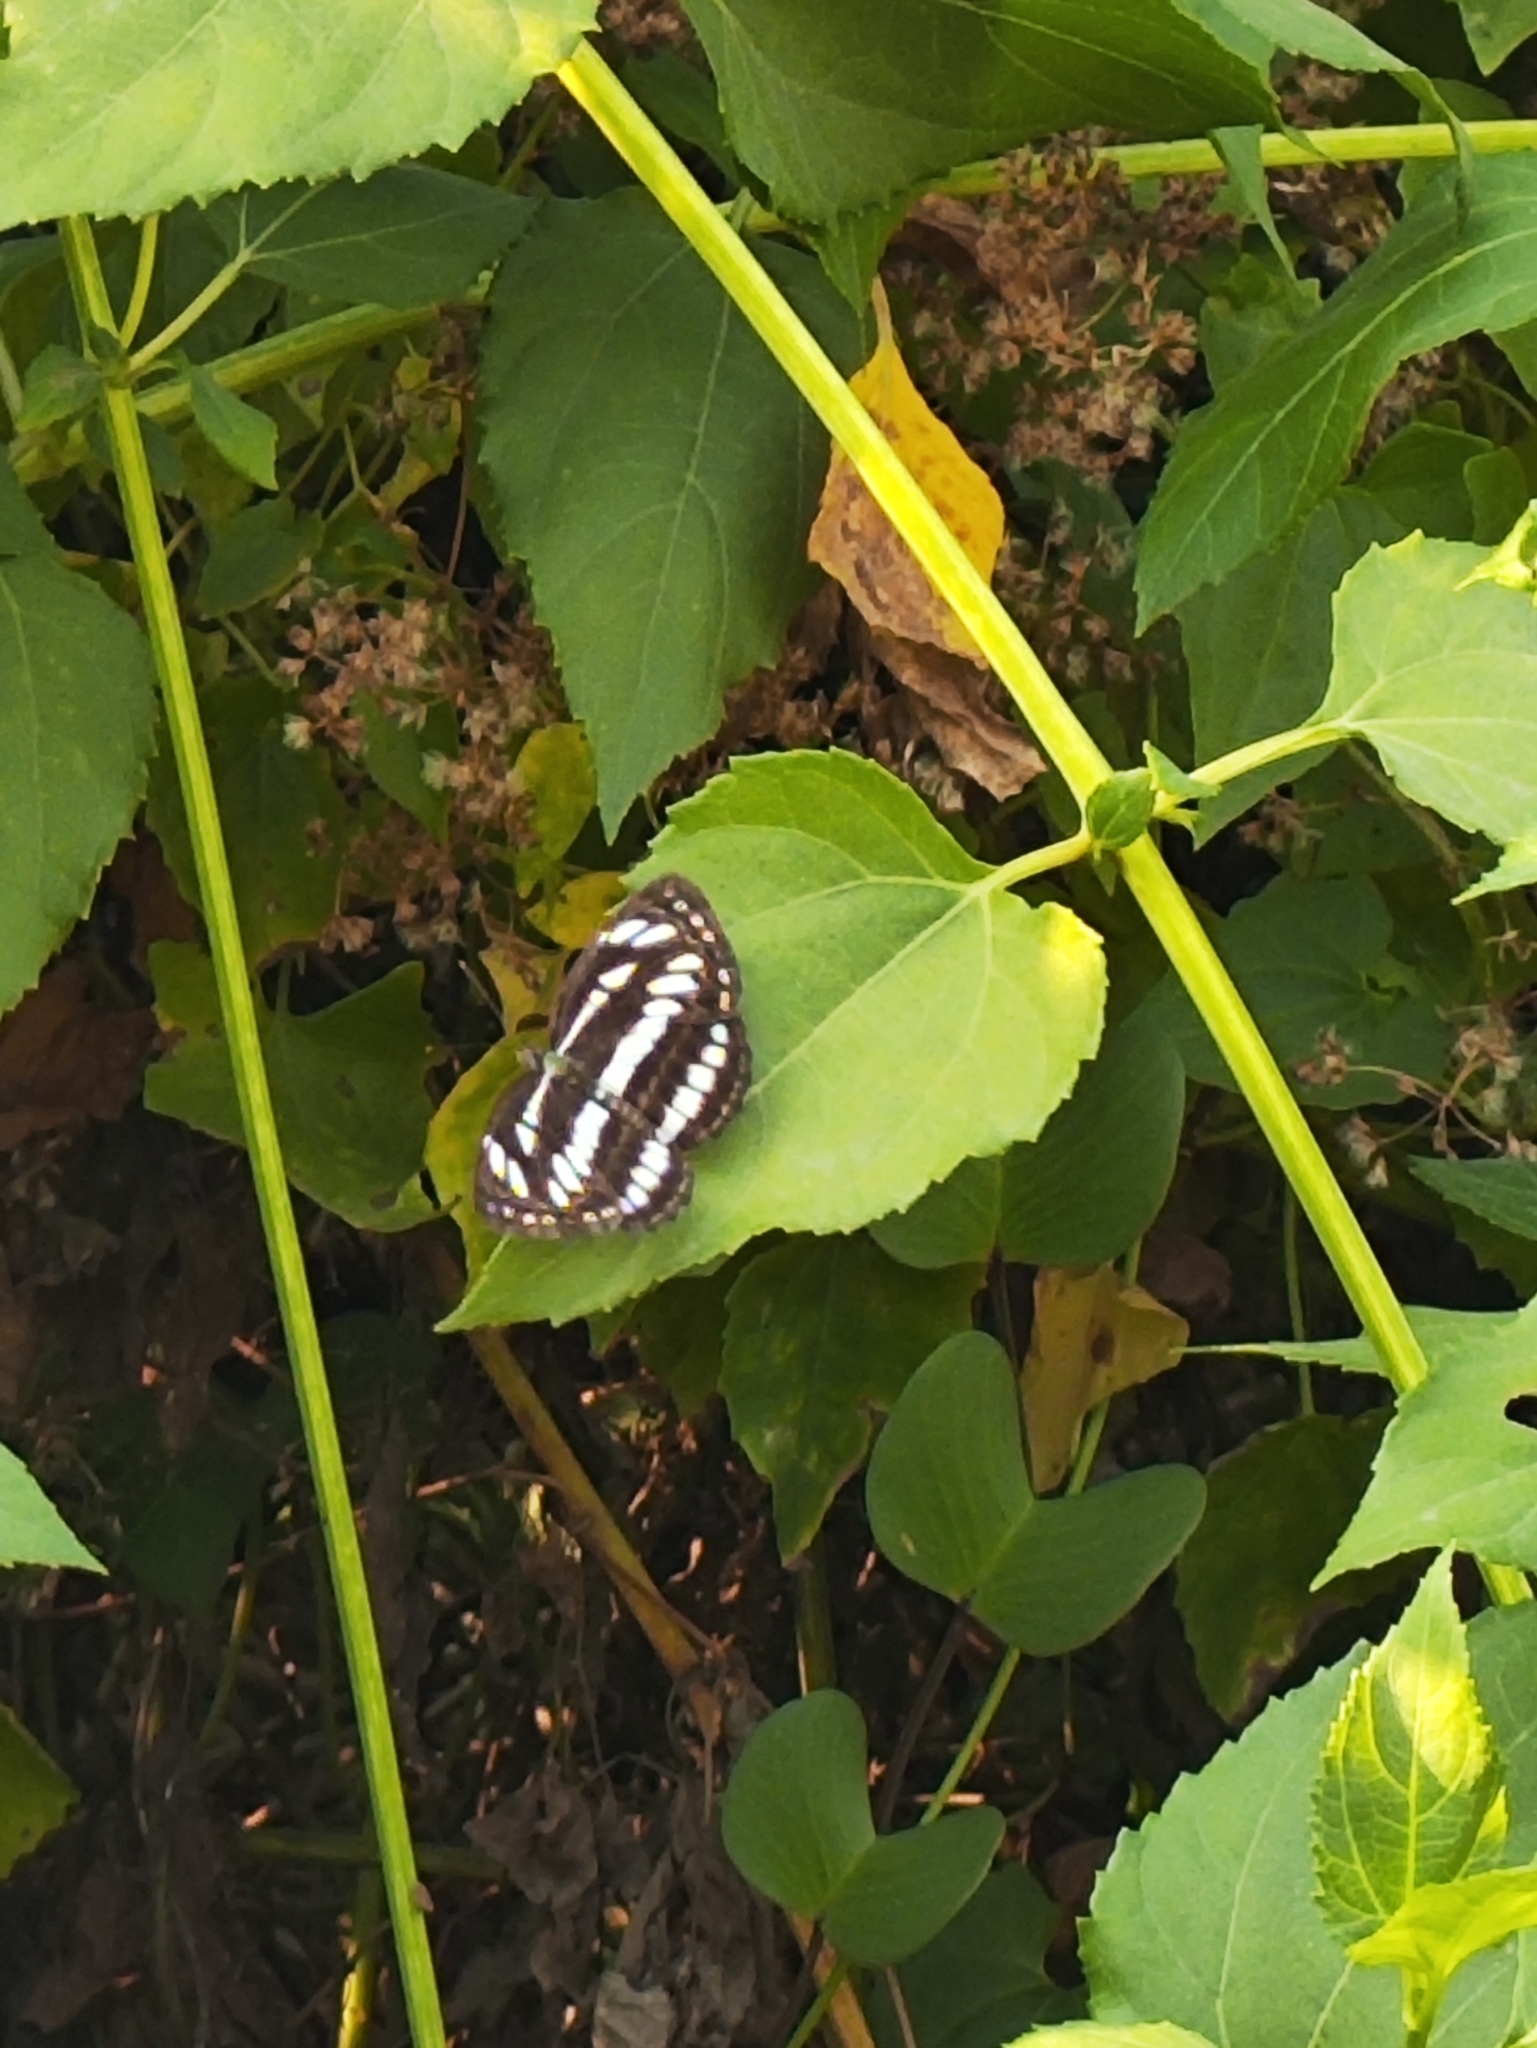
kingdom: Animalia
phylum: Arthropoda
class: Insecta
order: Lepidoptera
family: Nymphalidae
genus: Neptis
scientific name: Neptis hylas
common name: Common sailer
